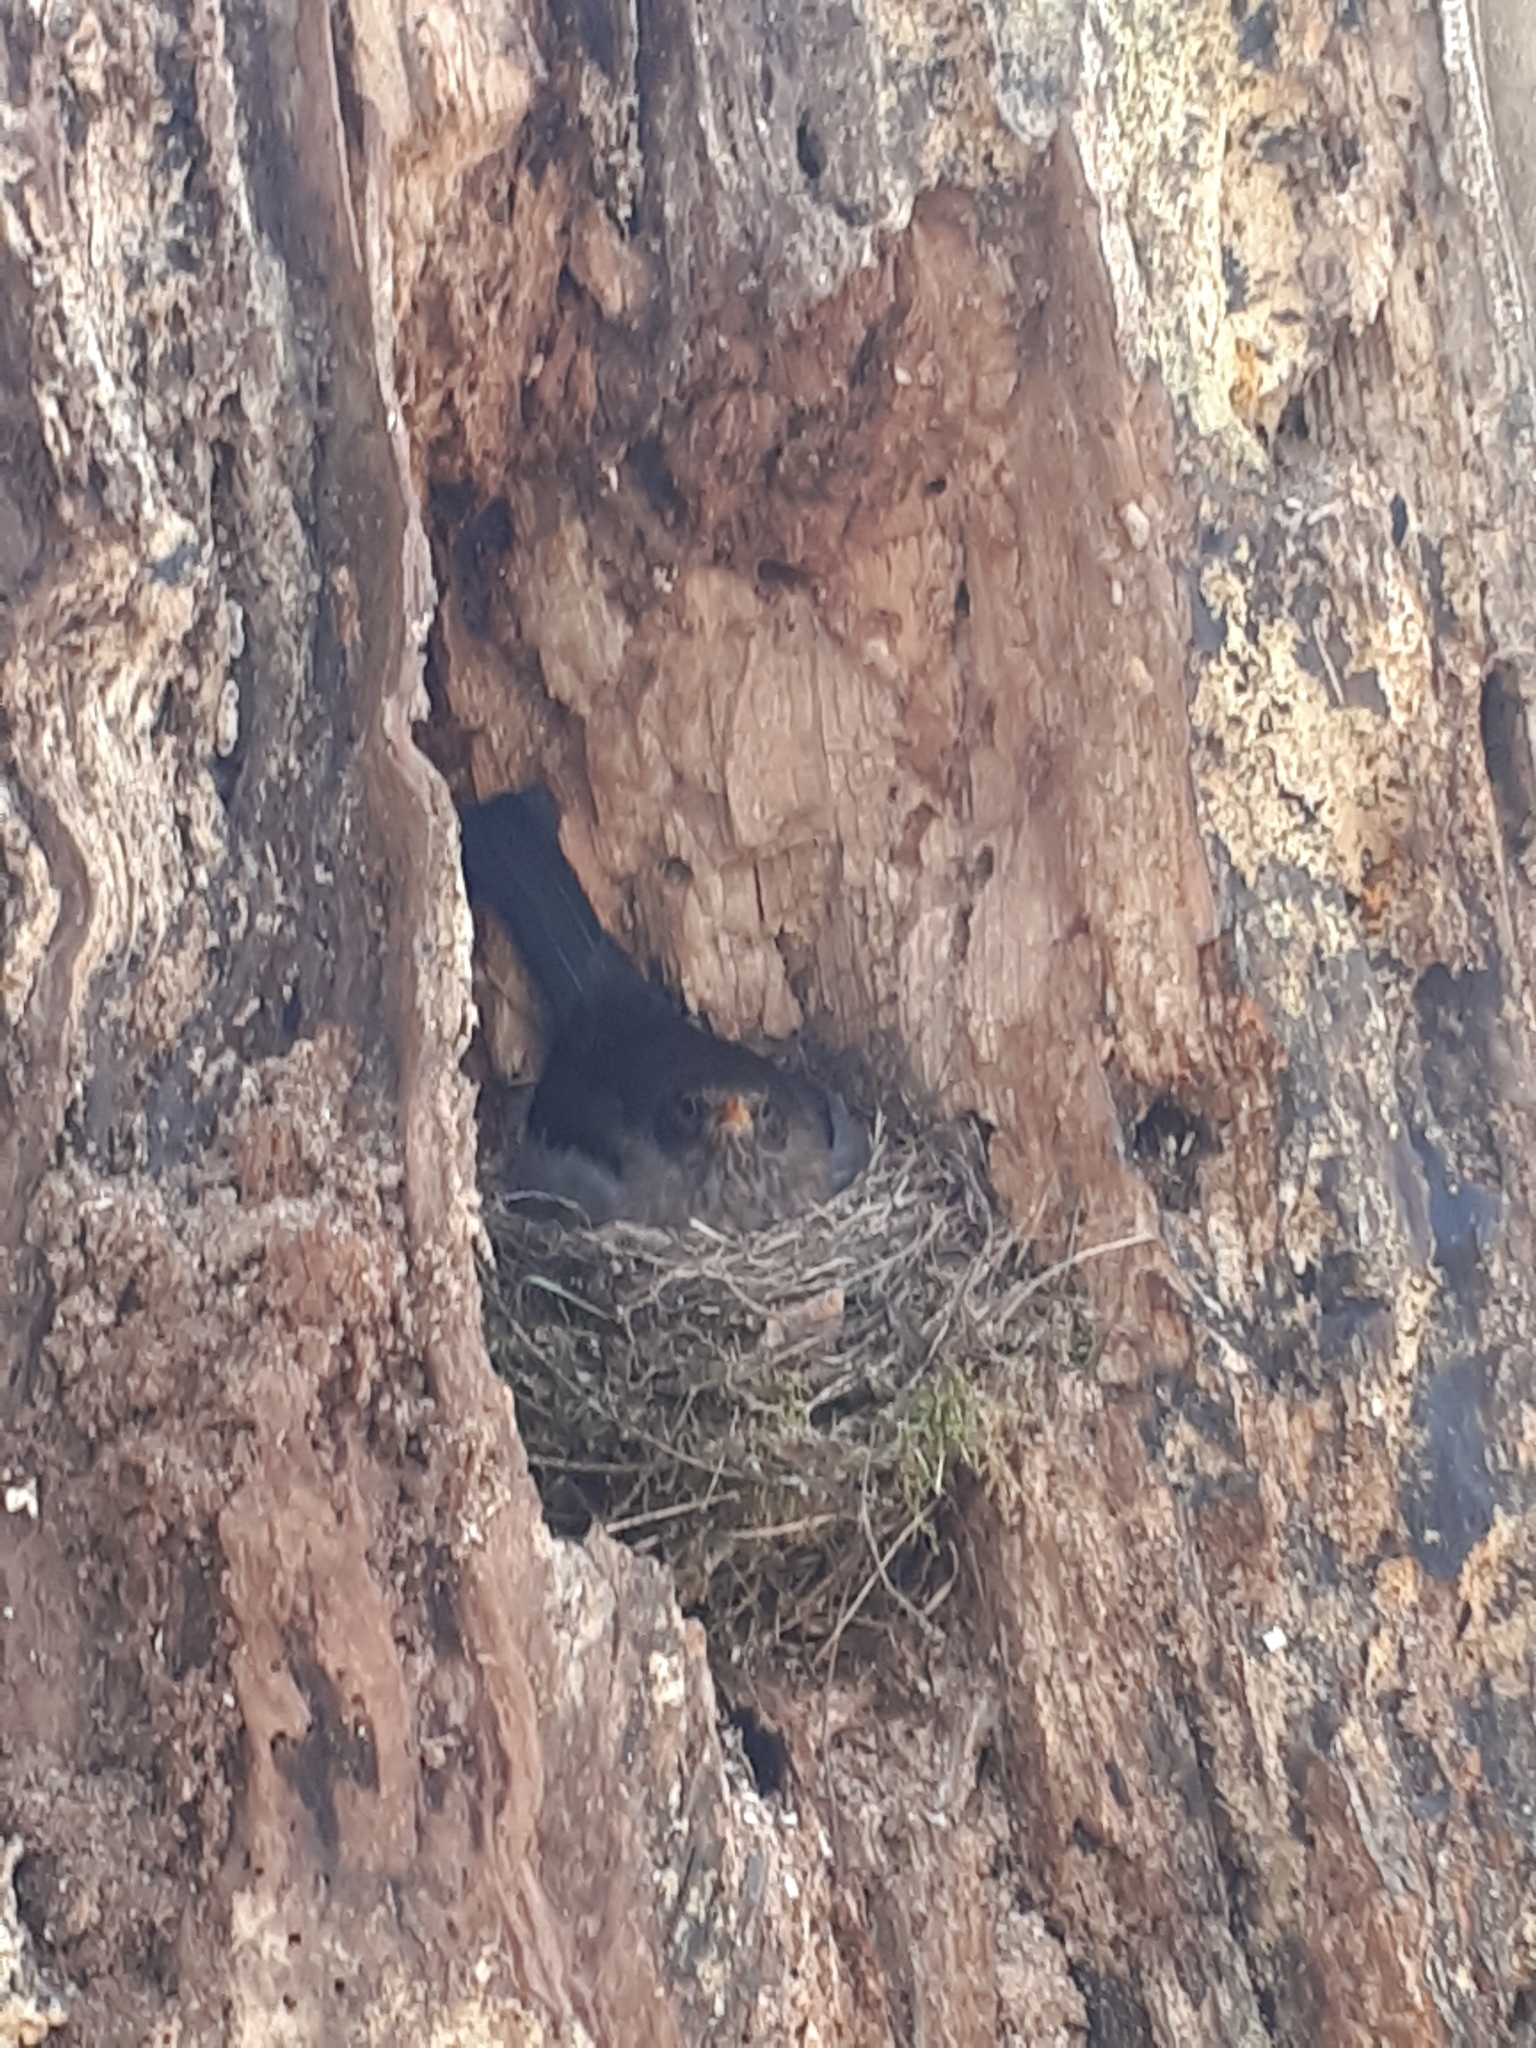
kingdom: Animalia
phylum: Chordata
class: Aves
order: Passeriformes
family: Turdidae
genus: Turdus
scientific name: Turdus merula
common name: Common blackbird
